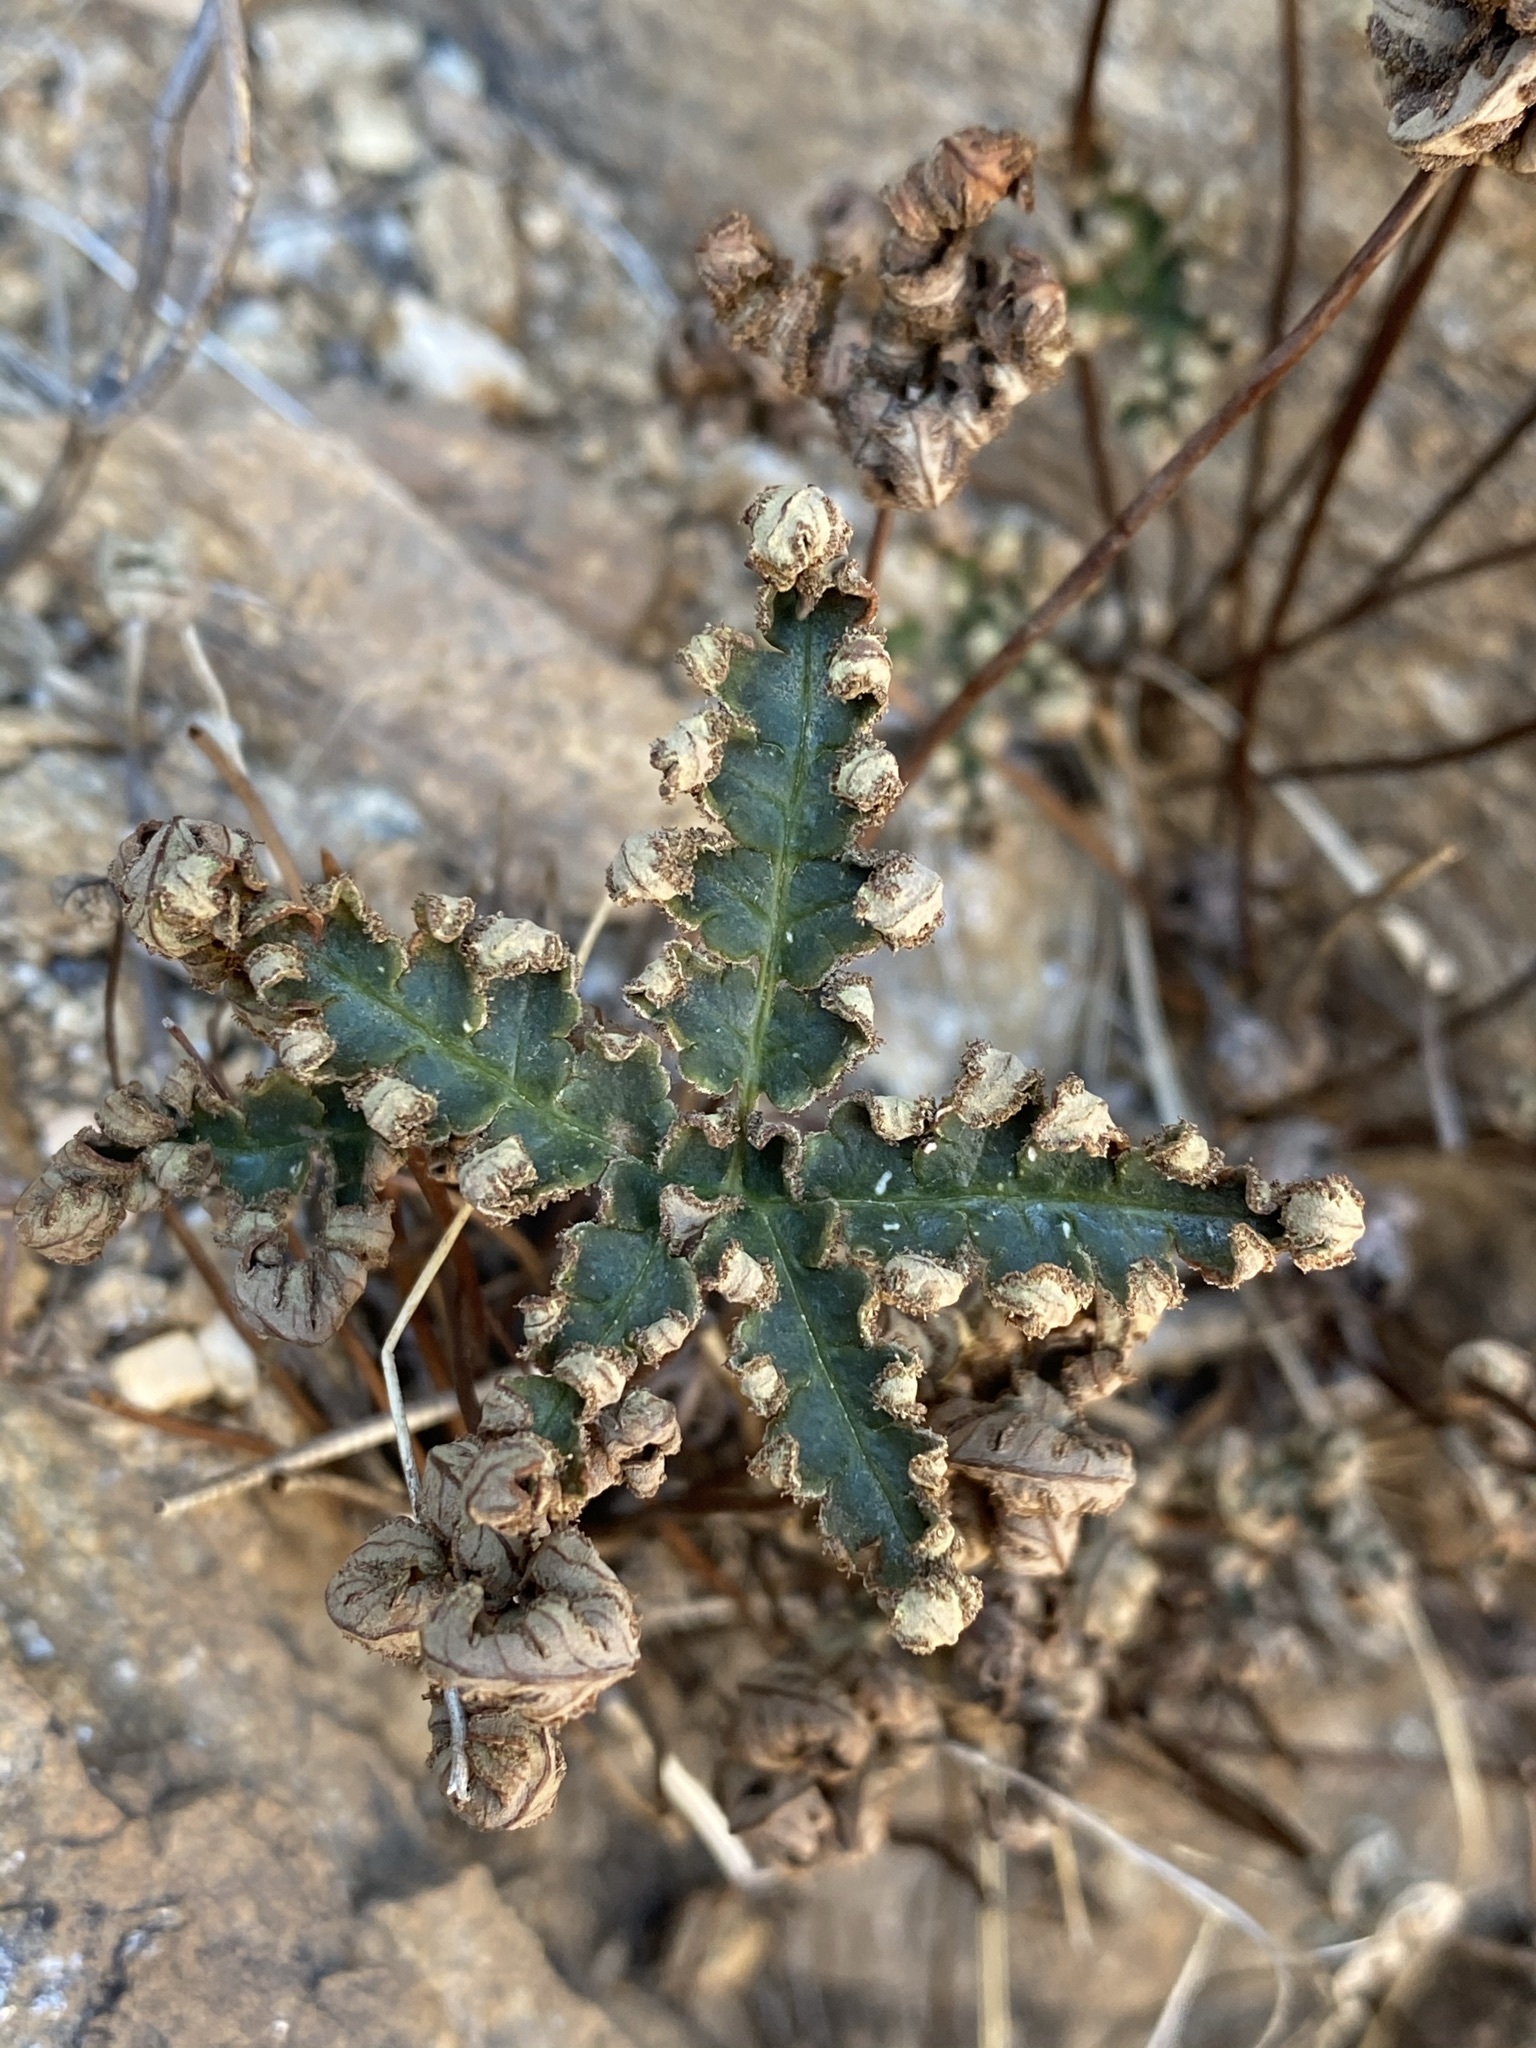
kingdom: Plantae
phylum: Tracheophyta
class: Polypodiopsida
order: Polypodiales
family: Pteridaceae
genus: Notholaena
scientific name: Notholaena standleyi
